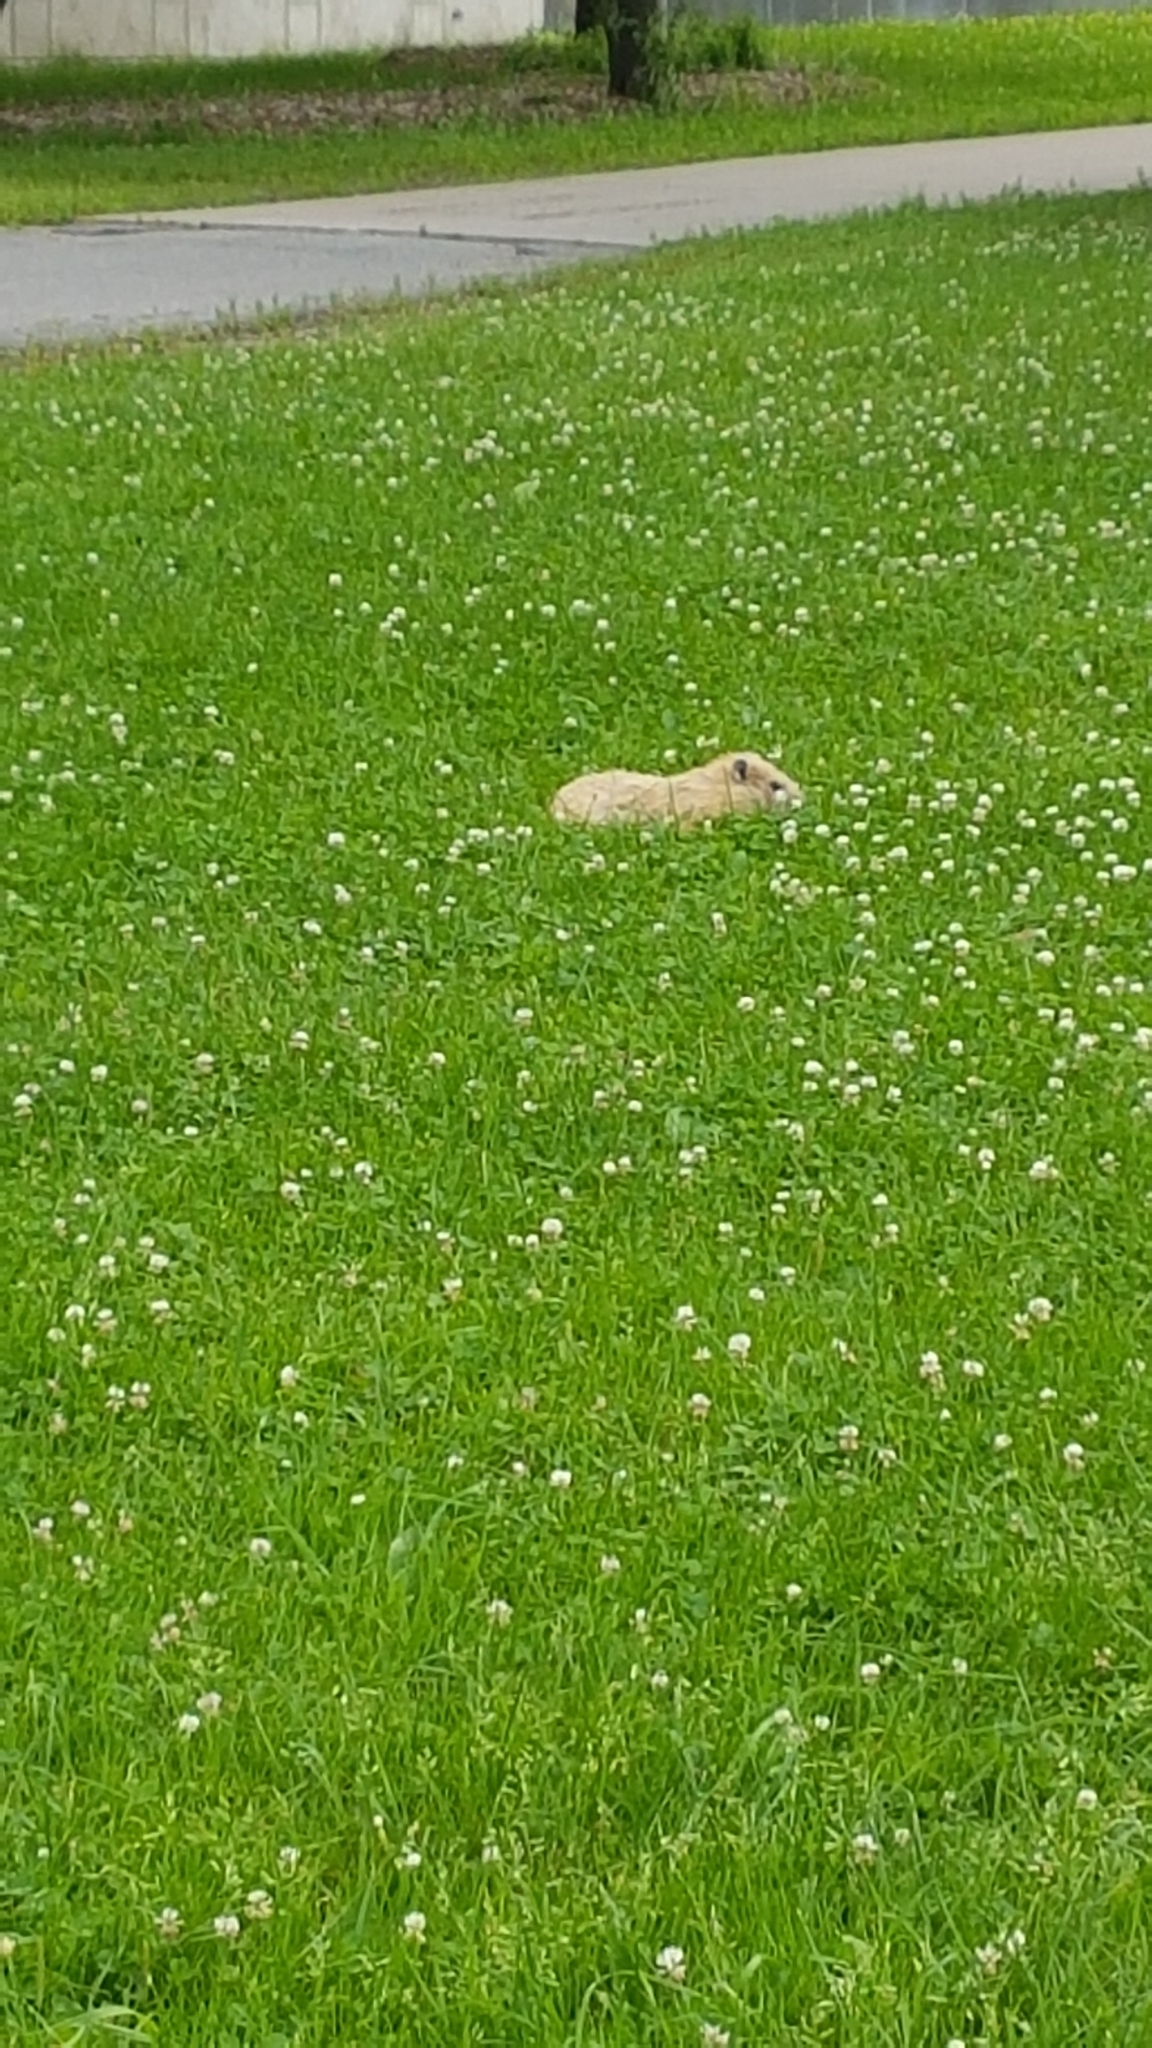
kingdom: Animalia
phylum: Chordata
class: Mammalia
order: Rodentia
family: Sciuridae
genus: Marmota
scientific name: Marmota monax
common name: Groundhog
